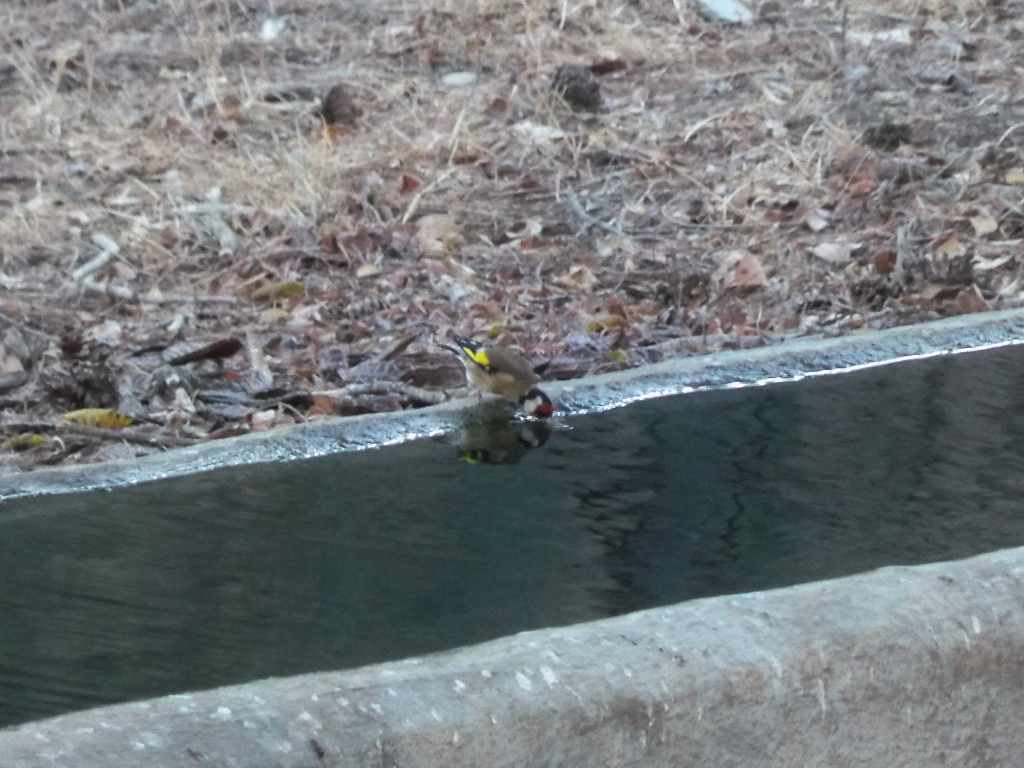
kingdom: Animalia
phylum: Chordata
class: Aves
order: Passeriformes
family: Fringillidae
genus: Carduelis
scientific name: Carduelis carduelis
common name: European goldfinch
